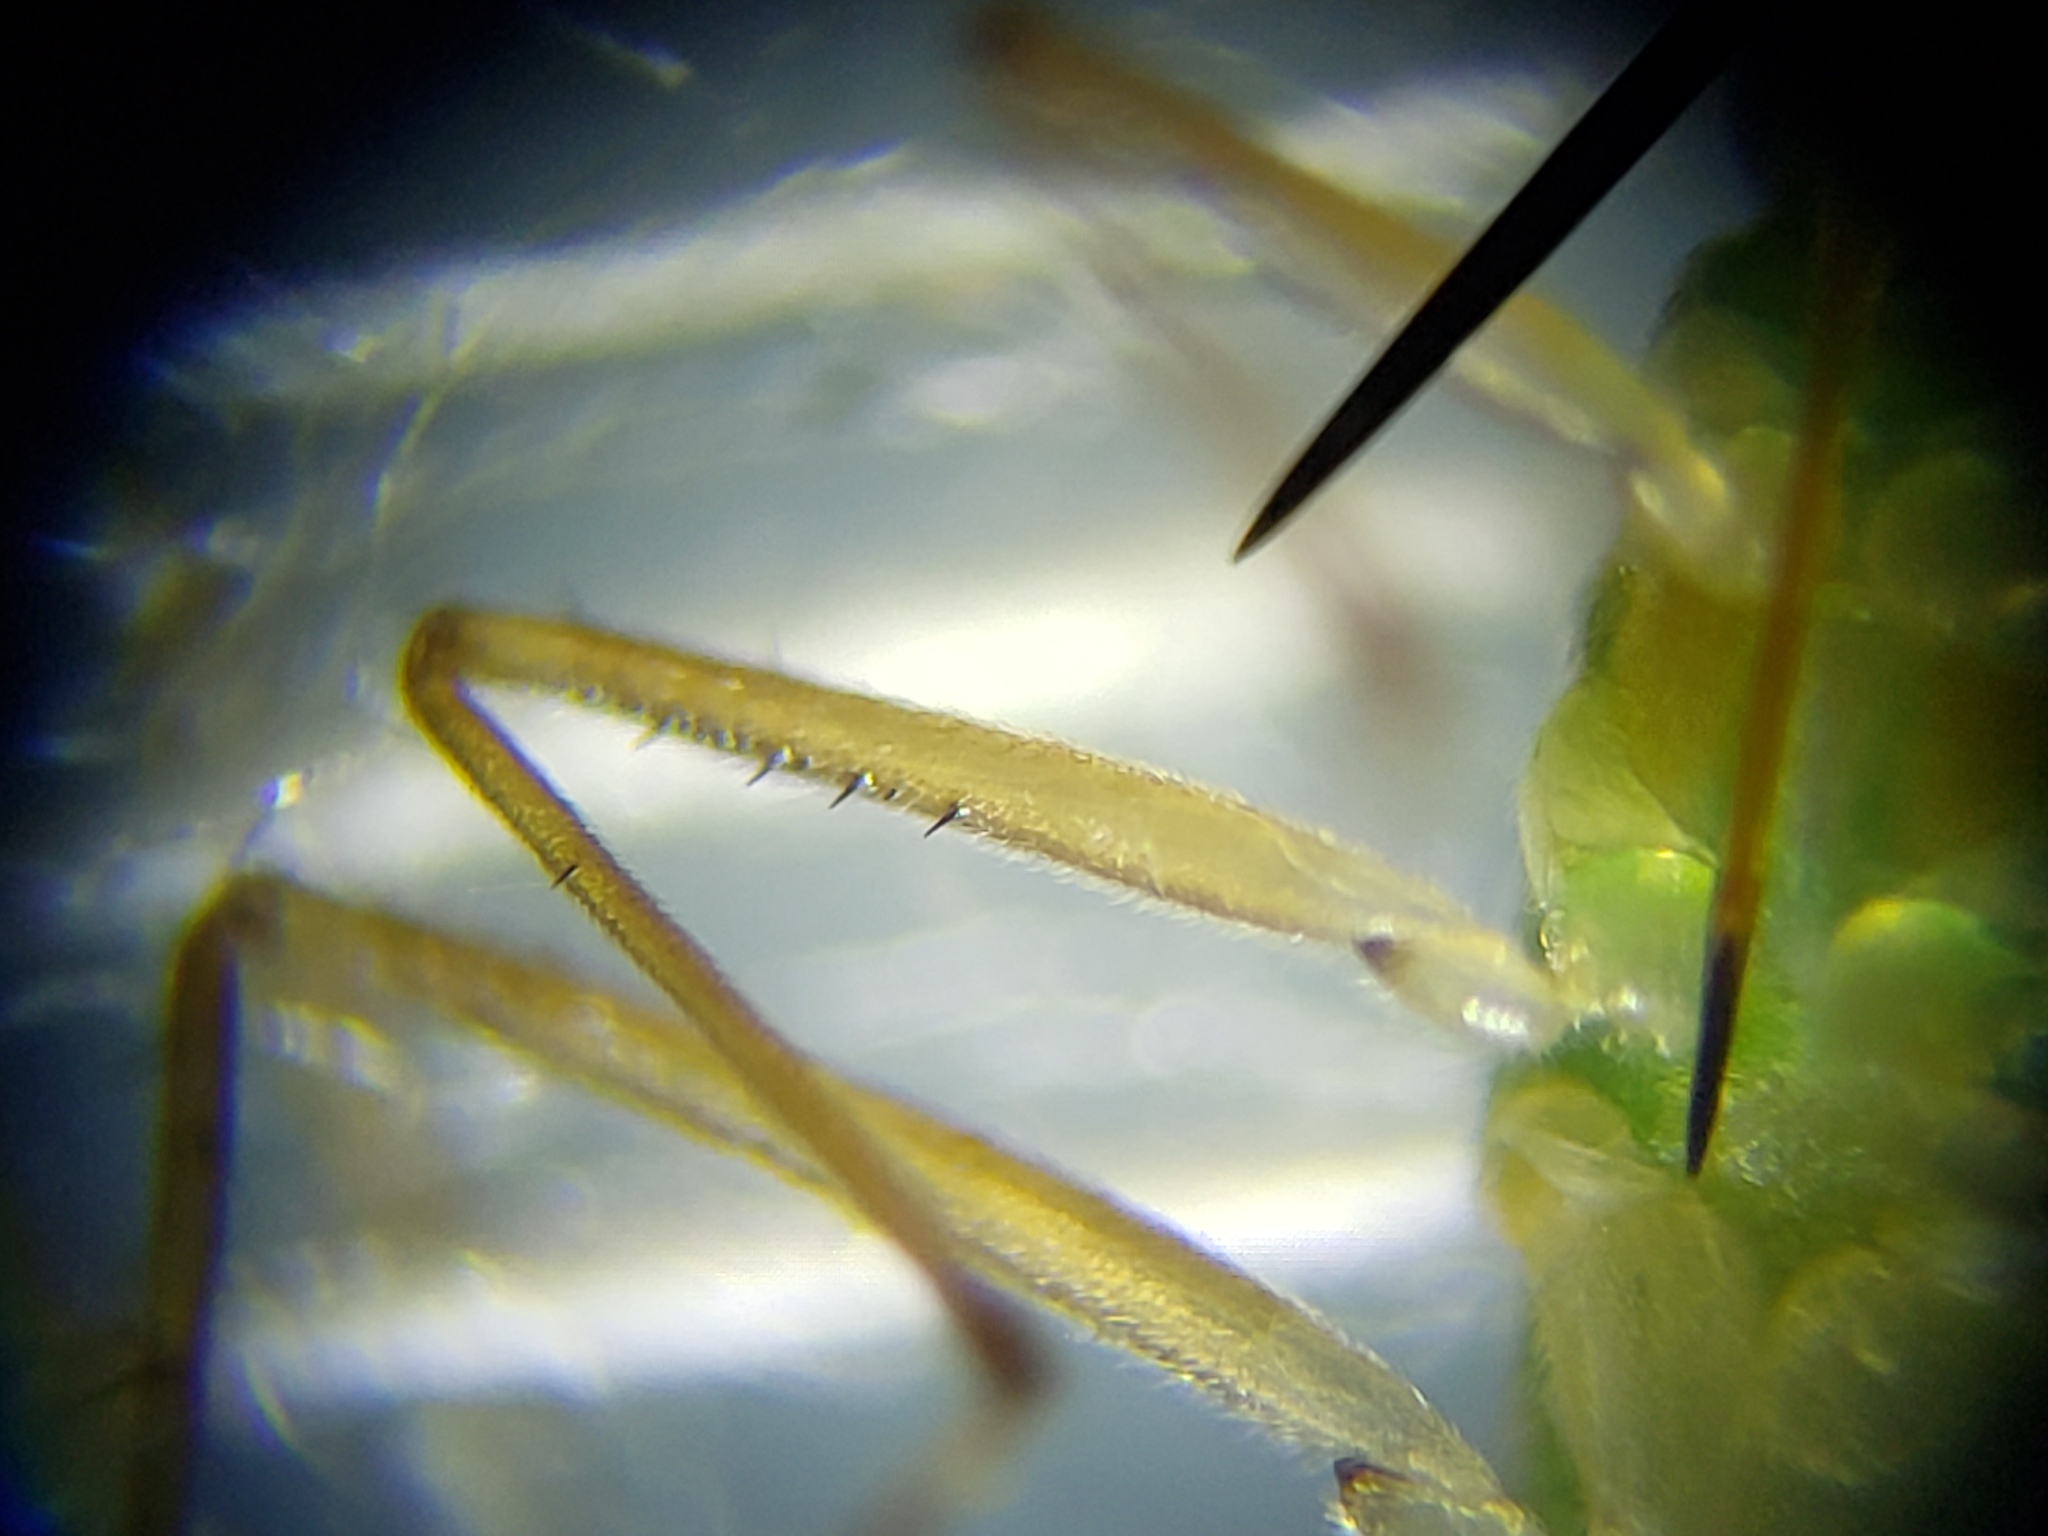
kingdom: Animalia
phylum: Arthropoda
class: Insecta
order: Hemiptera
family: Mesoveliidae
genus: Mesovelia
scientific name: Mesovelia mulsanti
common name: Water treaders
